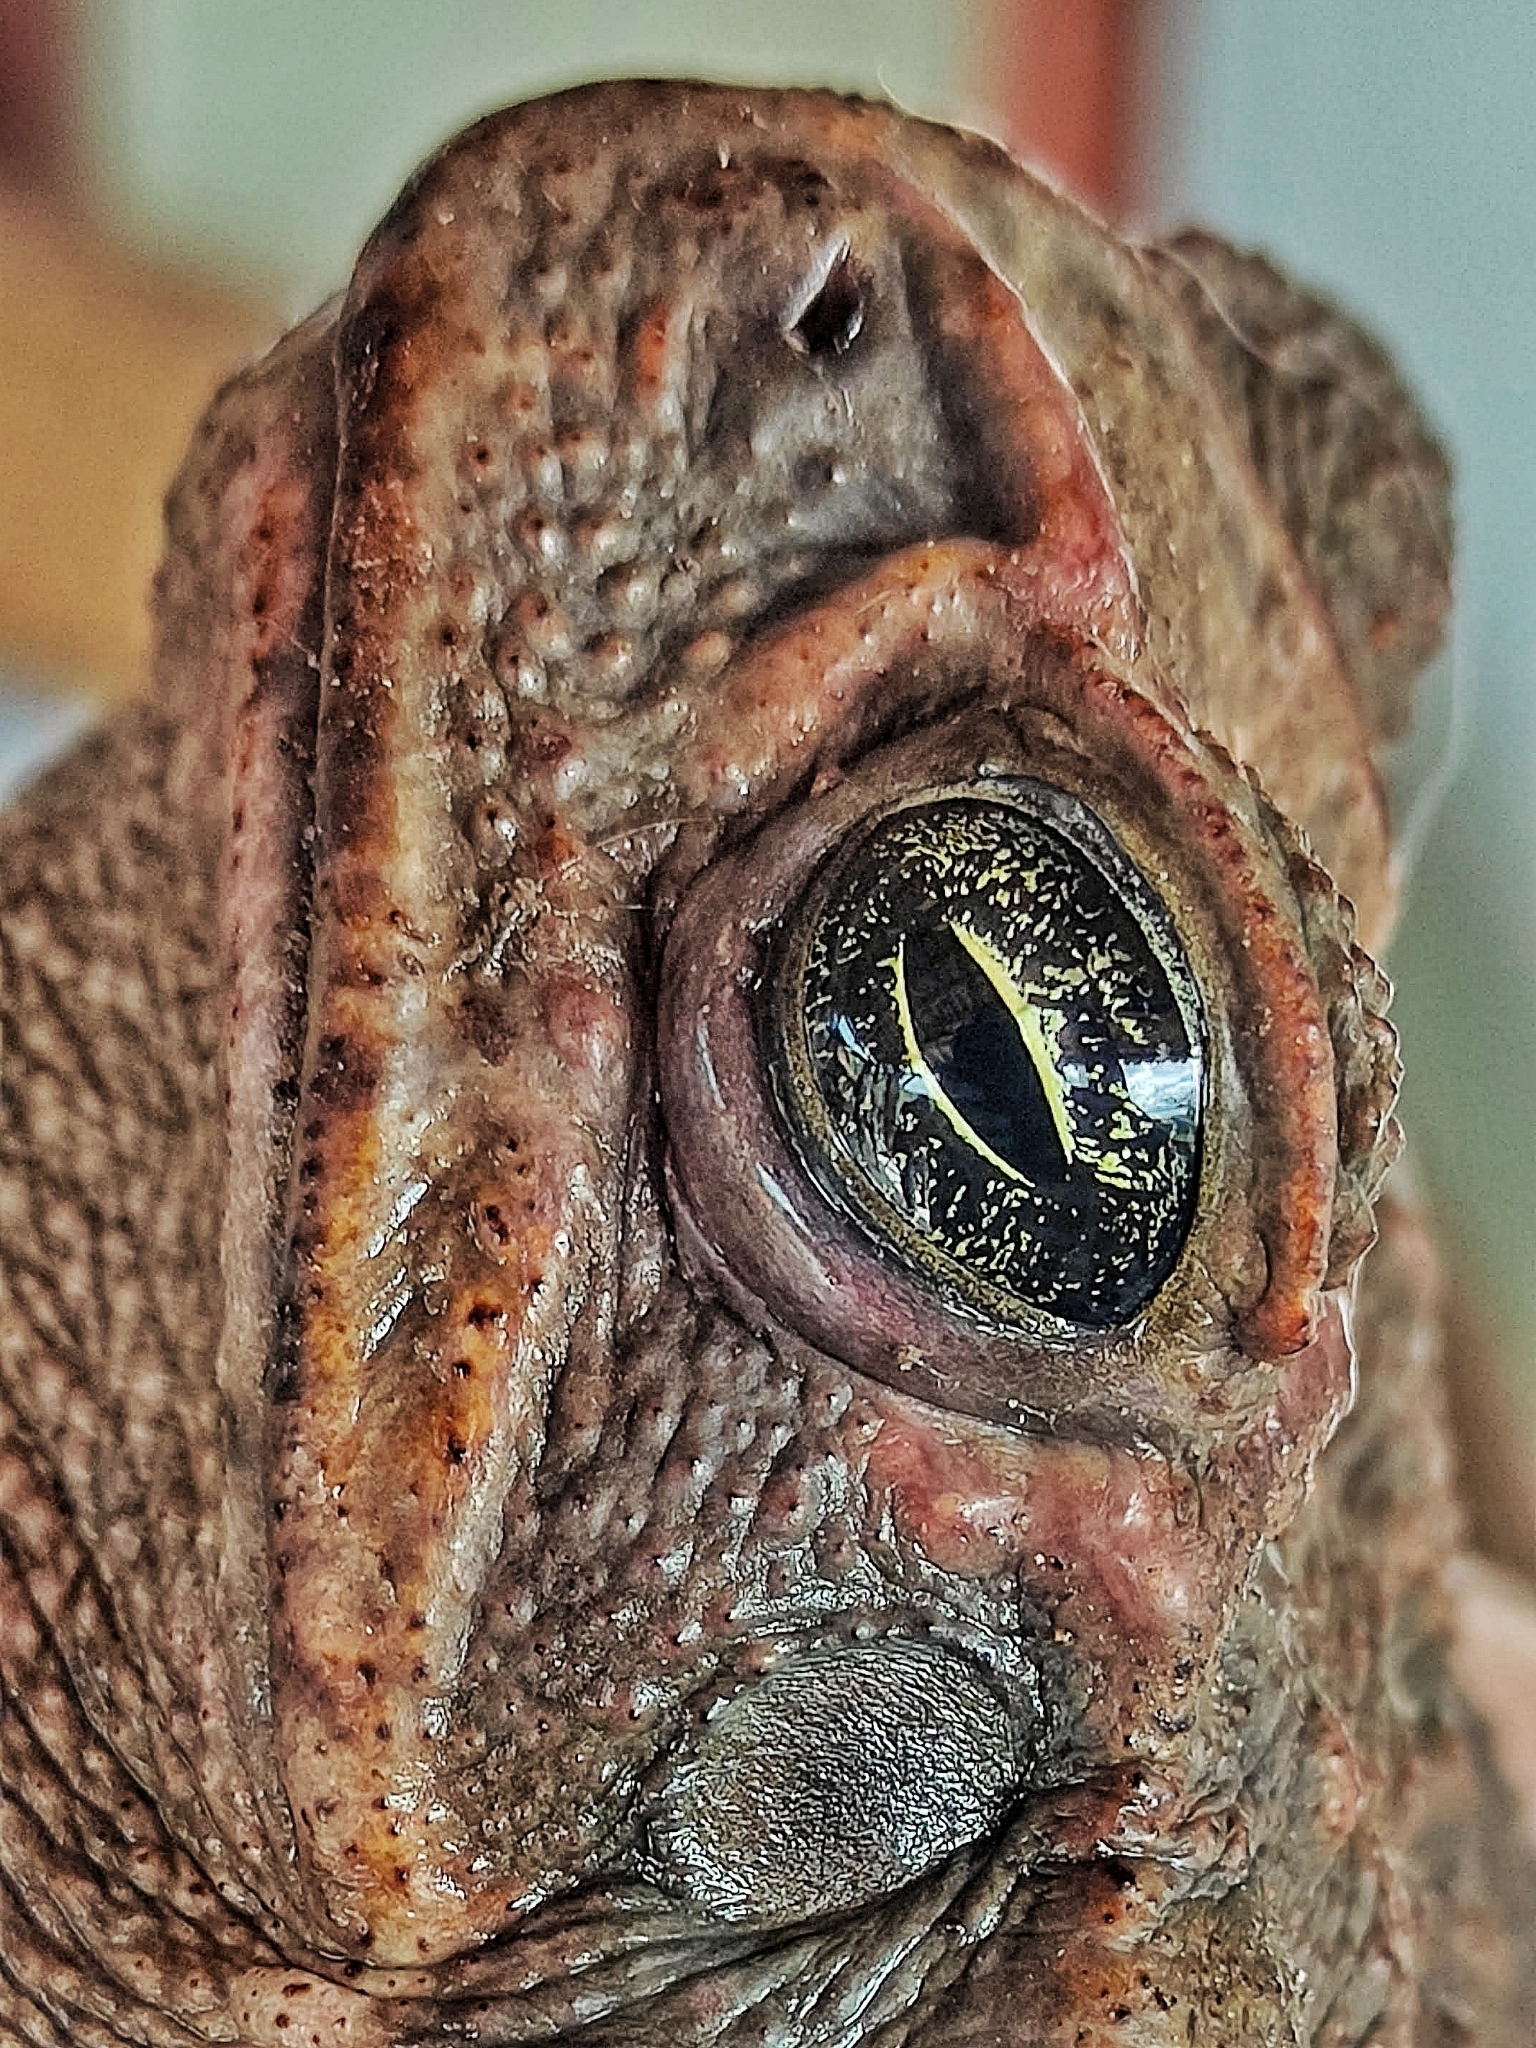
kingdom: Animalia
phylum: Chordata
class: Amphibia
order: Anura
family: Bufonidae
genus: Rhinella
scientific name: Rhinella diptycha
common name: Cope's toad
